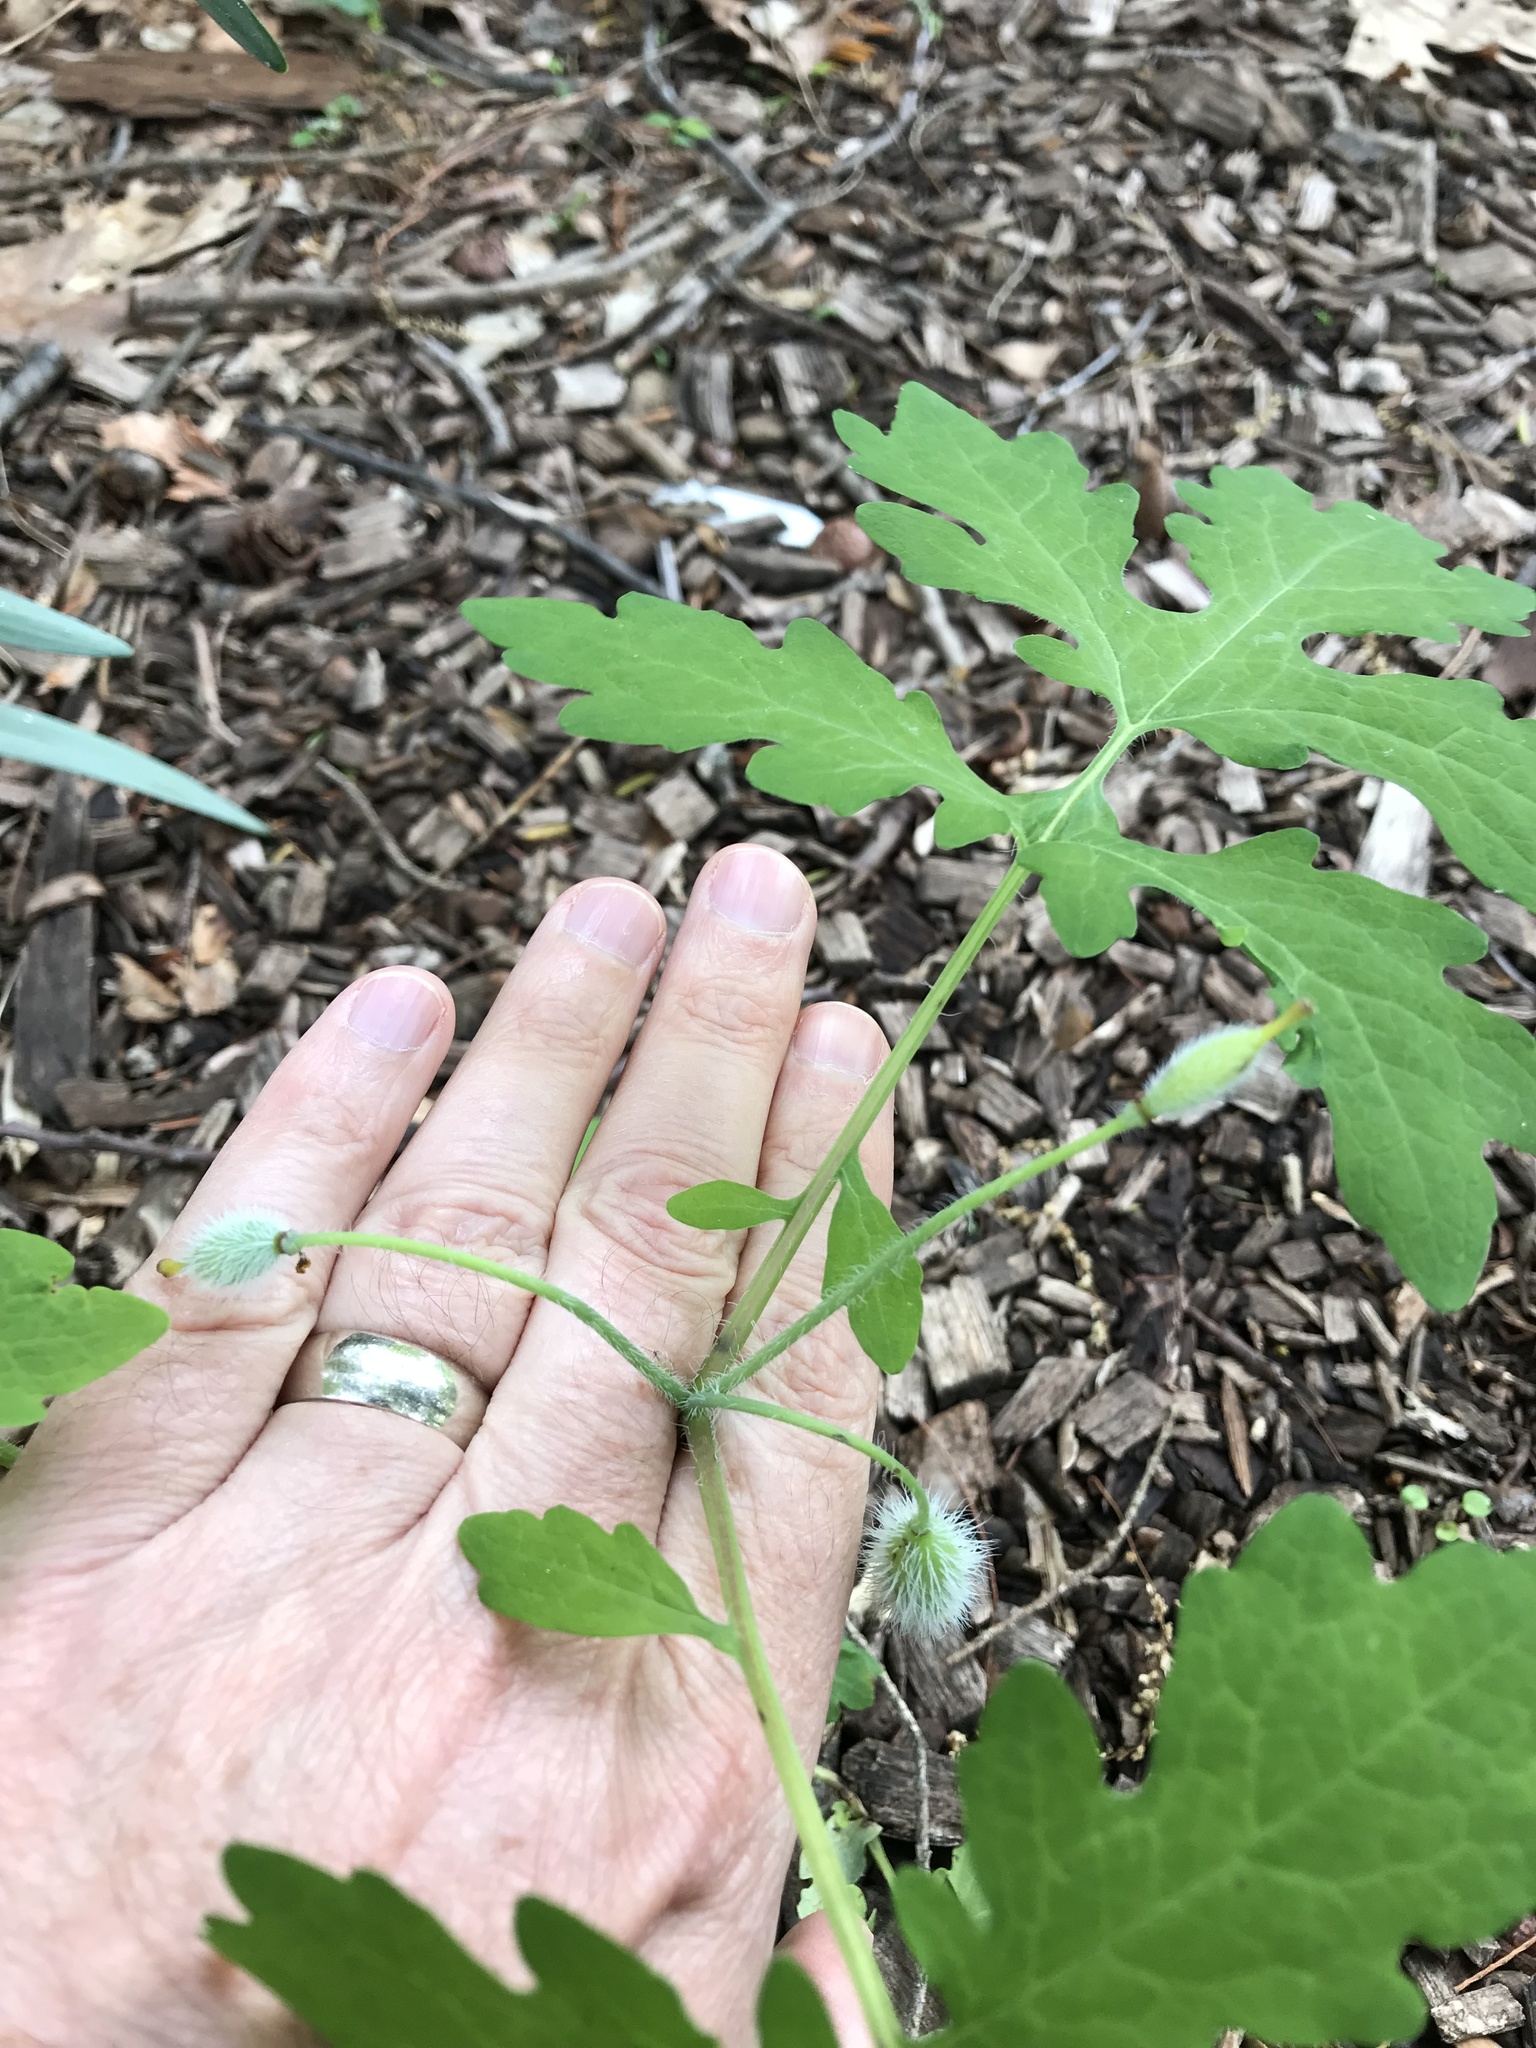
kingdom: Plantae
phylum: Tracheophyta
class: Magnoliopsida
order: Ranunculales
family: Papaveraceae
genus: Stylophorum
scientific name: Stylophorum diphyllum
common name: Celandine poppy
